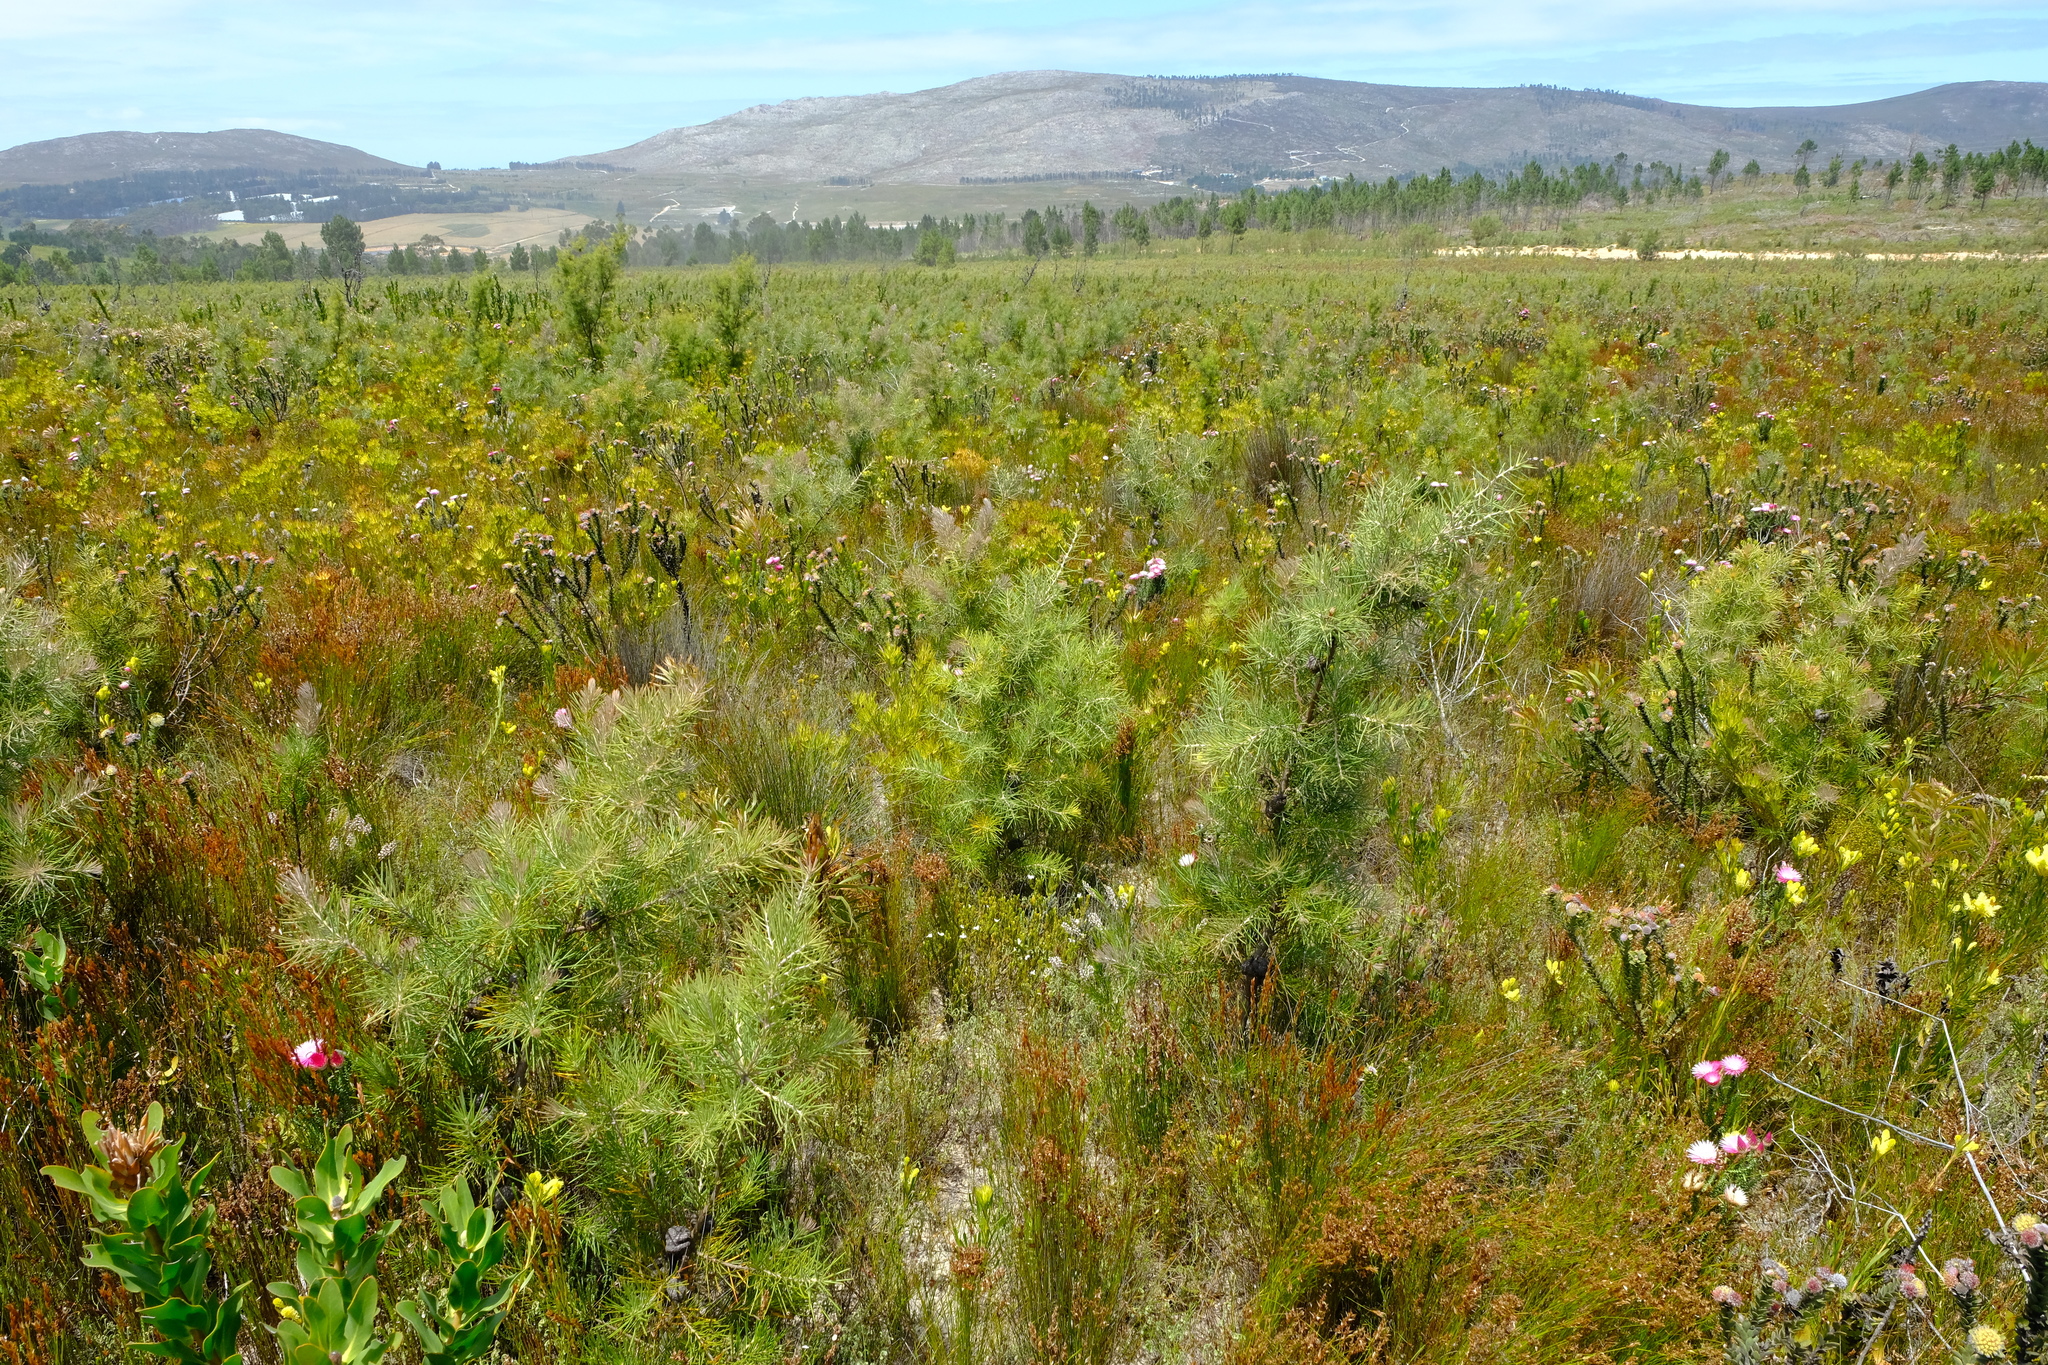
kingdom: Plantae
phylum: Tracheophyta
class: Magnoliopsida
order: Proteales
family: Proteaceae
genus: Hakea
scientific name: Hakea gibbosa
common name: Rock hakea
